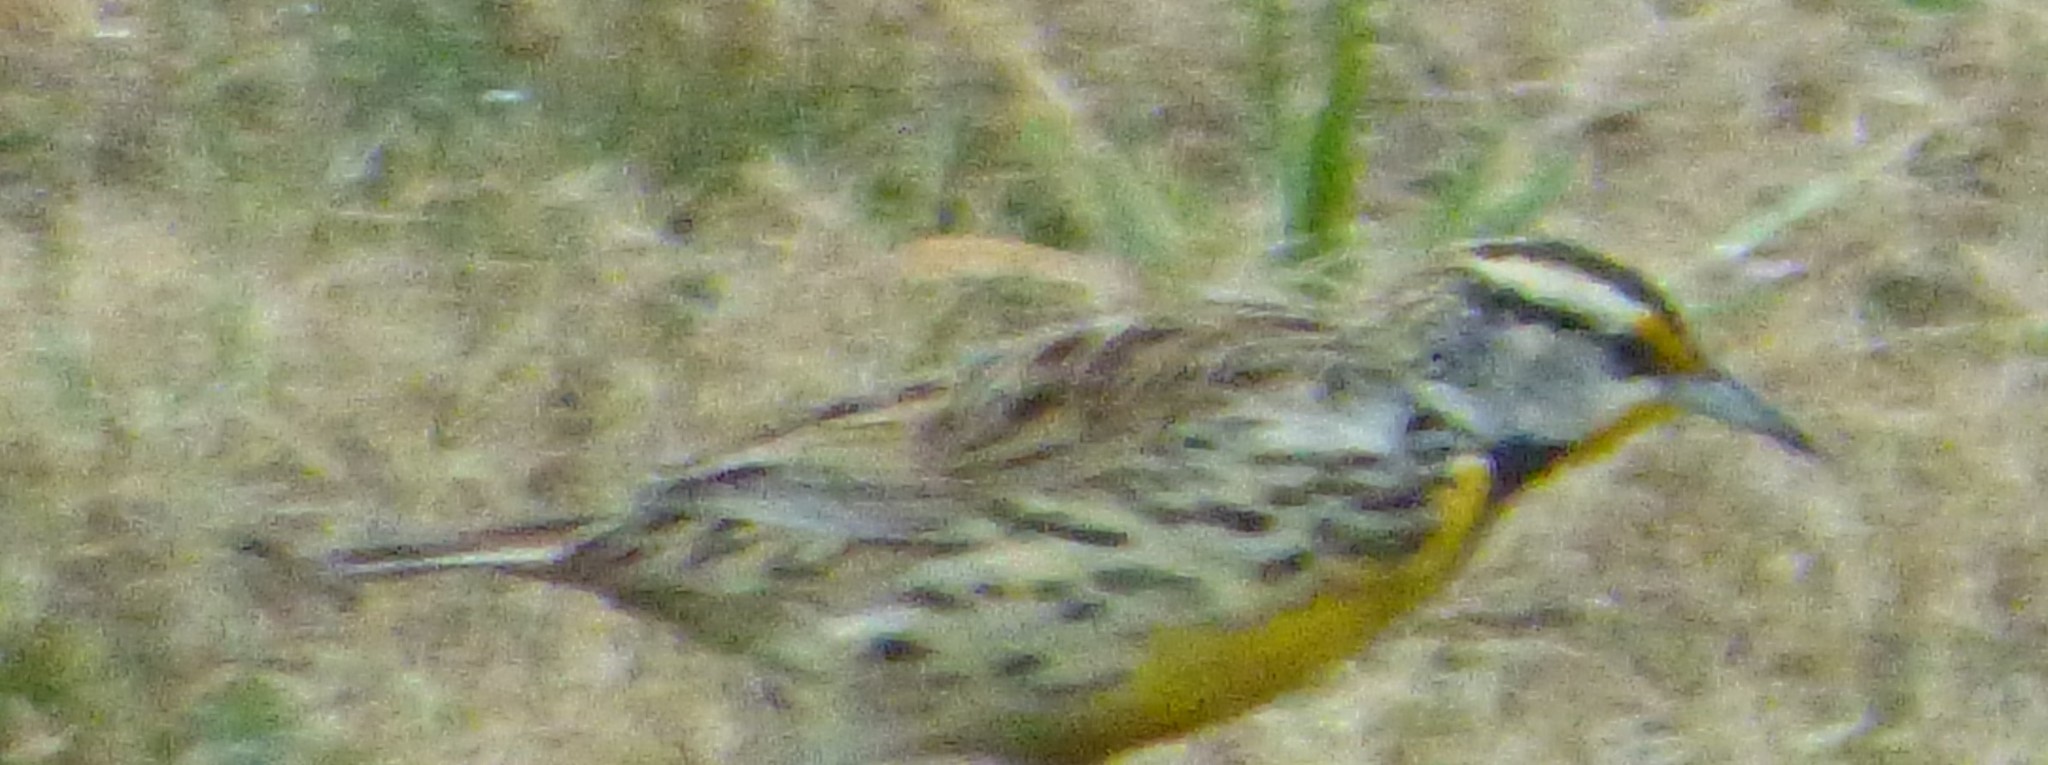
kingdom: Animalia
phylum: Chordata
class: Aves
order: Passeriformes
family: Icteridae
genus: Sturnella
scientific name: Sturnella magna
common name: Eastern meadowlark
